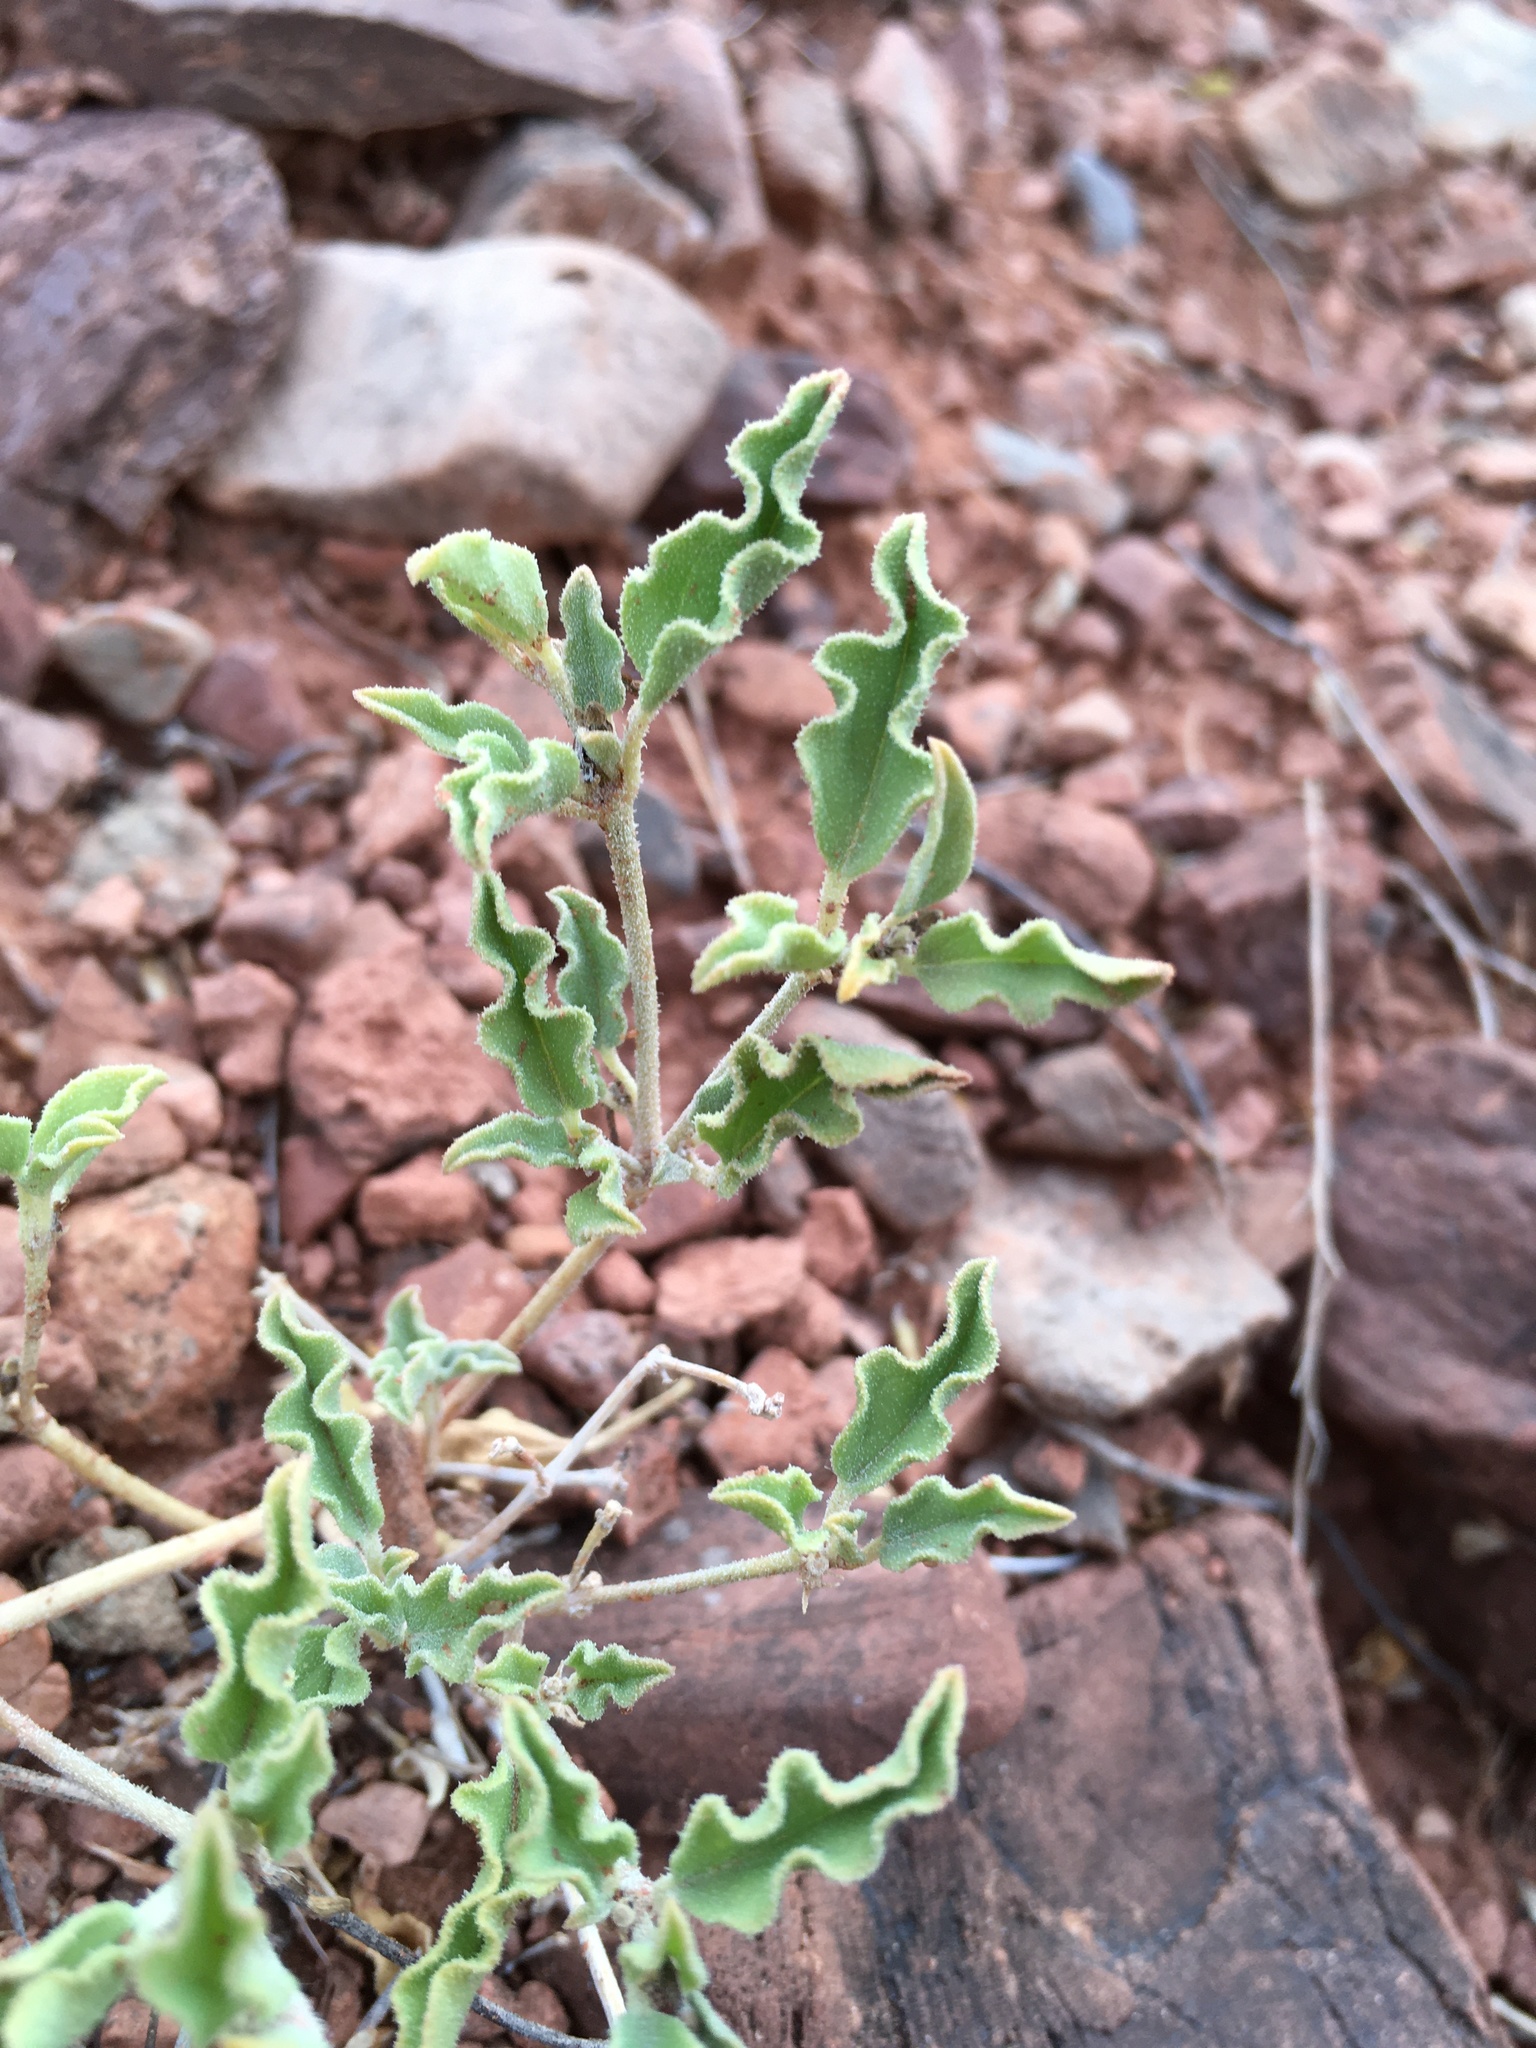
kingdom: Plantae
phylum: Tracheophyta
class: Magnoliopsida
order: Caryophyllales
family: Nyctaginaceae
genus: Acleisanthes
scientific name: Acleisanthes diffusa
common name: Spreading moonpod
